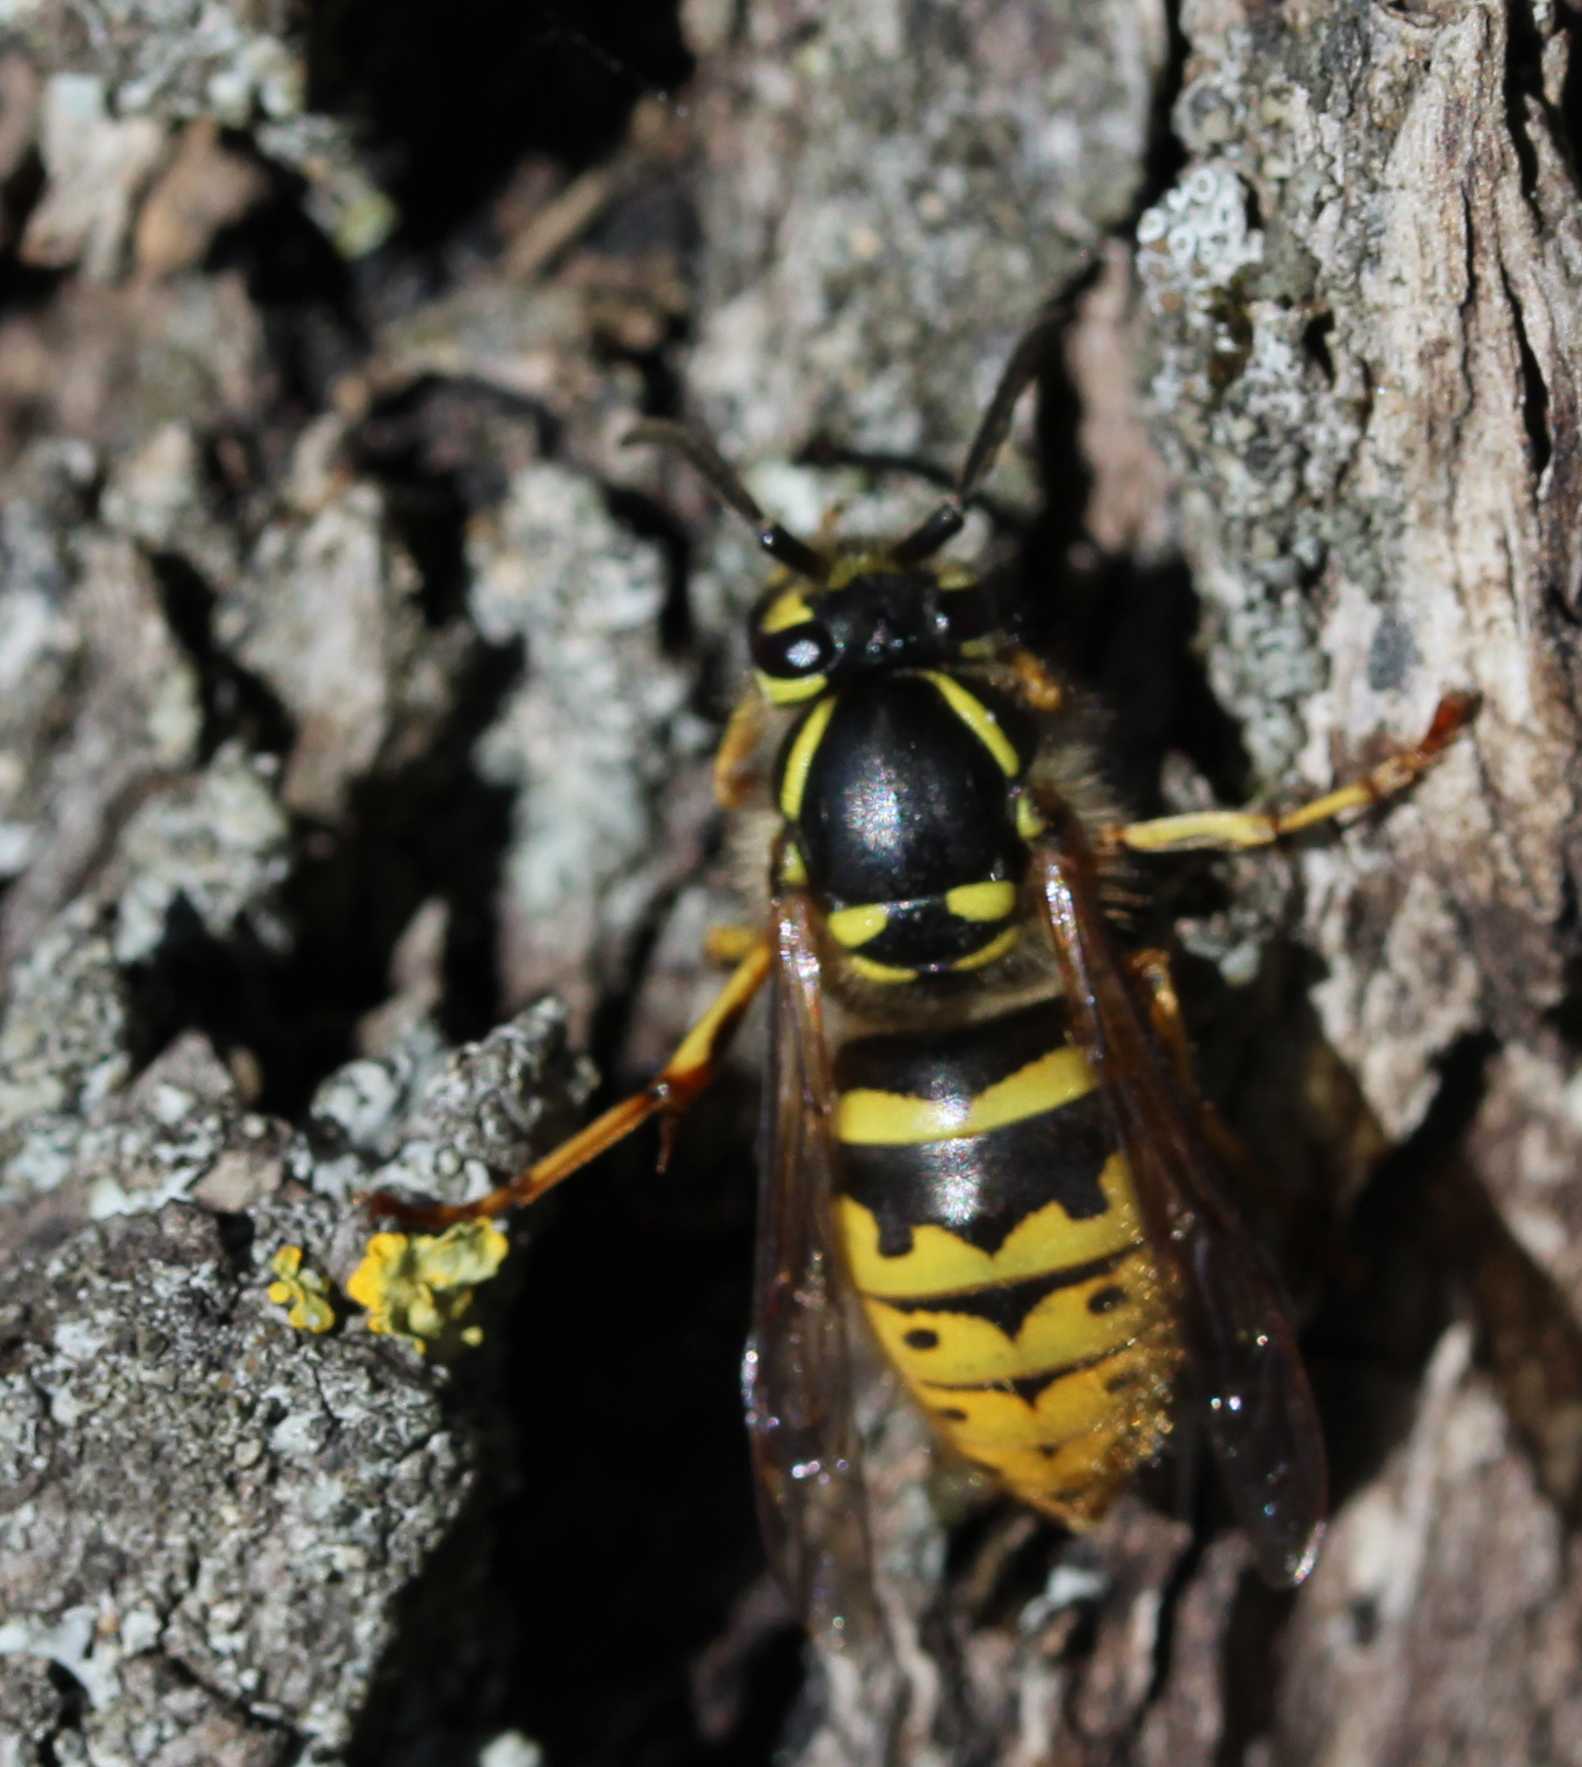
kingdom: Animalia
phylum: Arthropoda
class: Insecta
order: Hymenoptera
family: Vespidae
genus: Vespula
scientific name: Vespula vulgaris
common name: Common wasp
